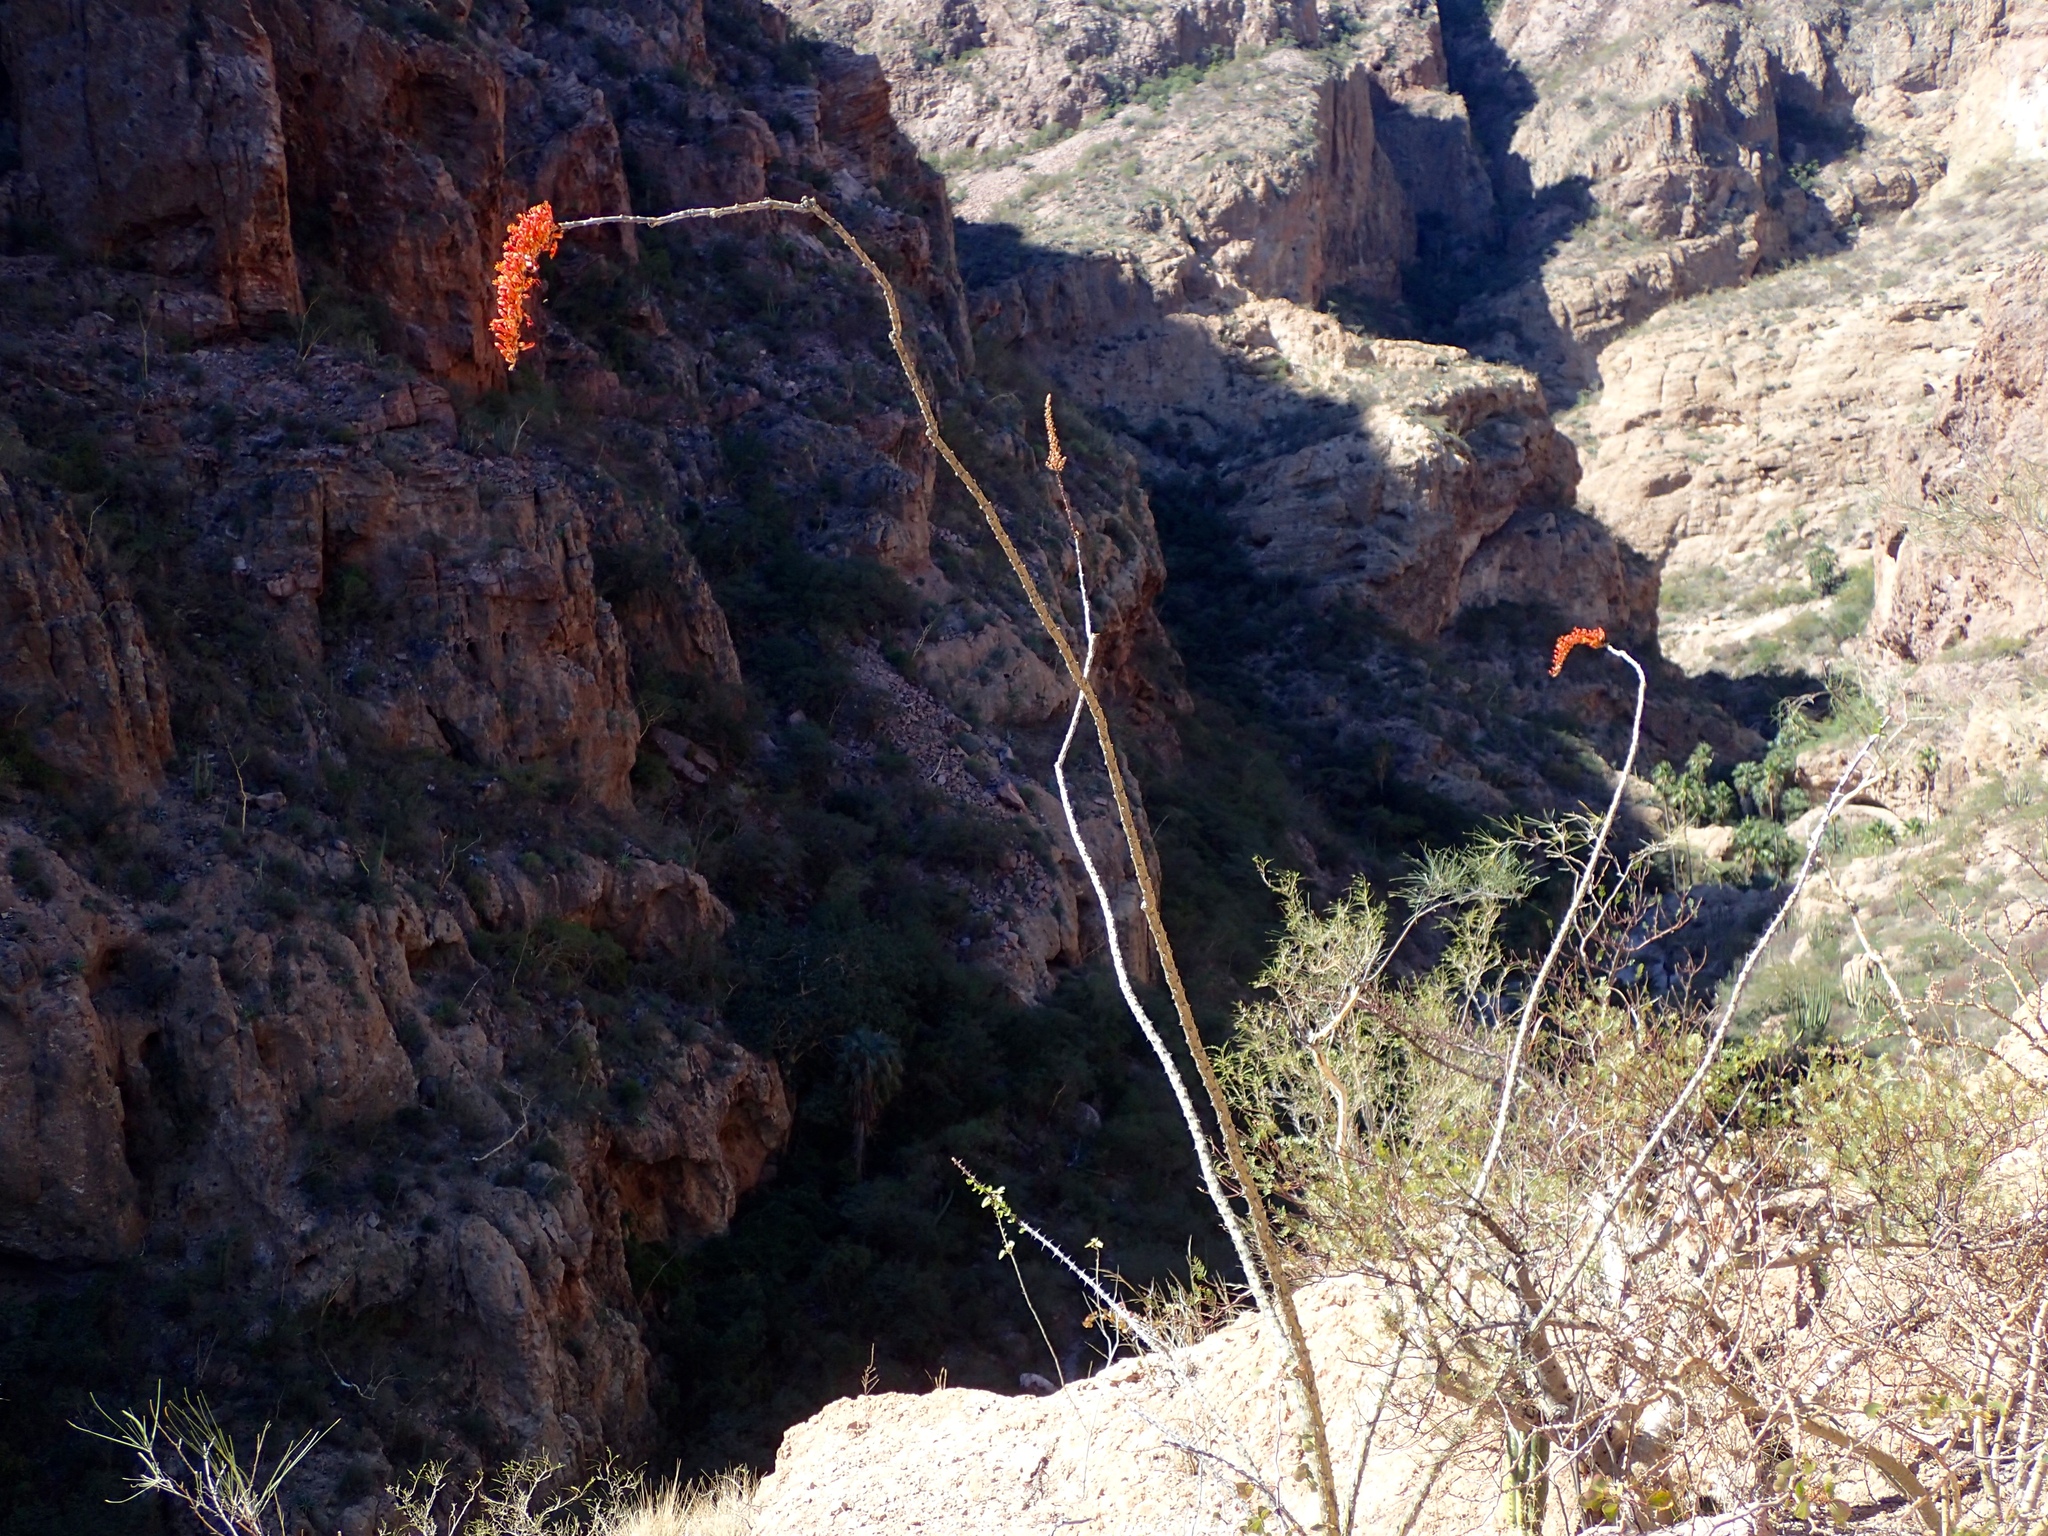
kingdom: Plantae
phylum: Tracheophyta
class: Magnoliopsida
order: Ericales
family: Fouquieriaceae
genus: Fouquieria
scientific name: Fouquieria splendens
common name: Vine-cactus
